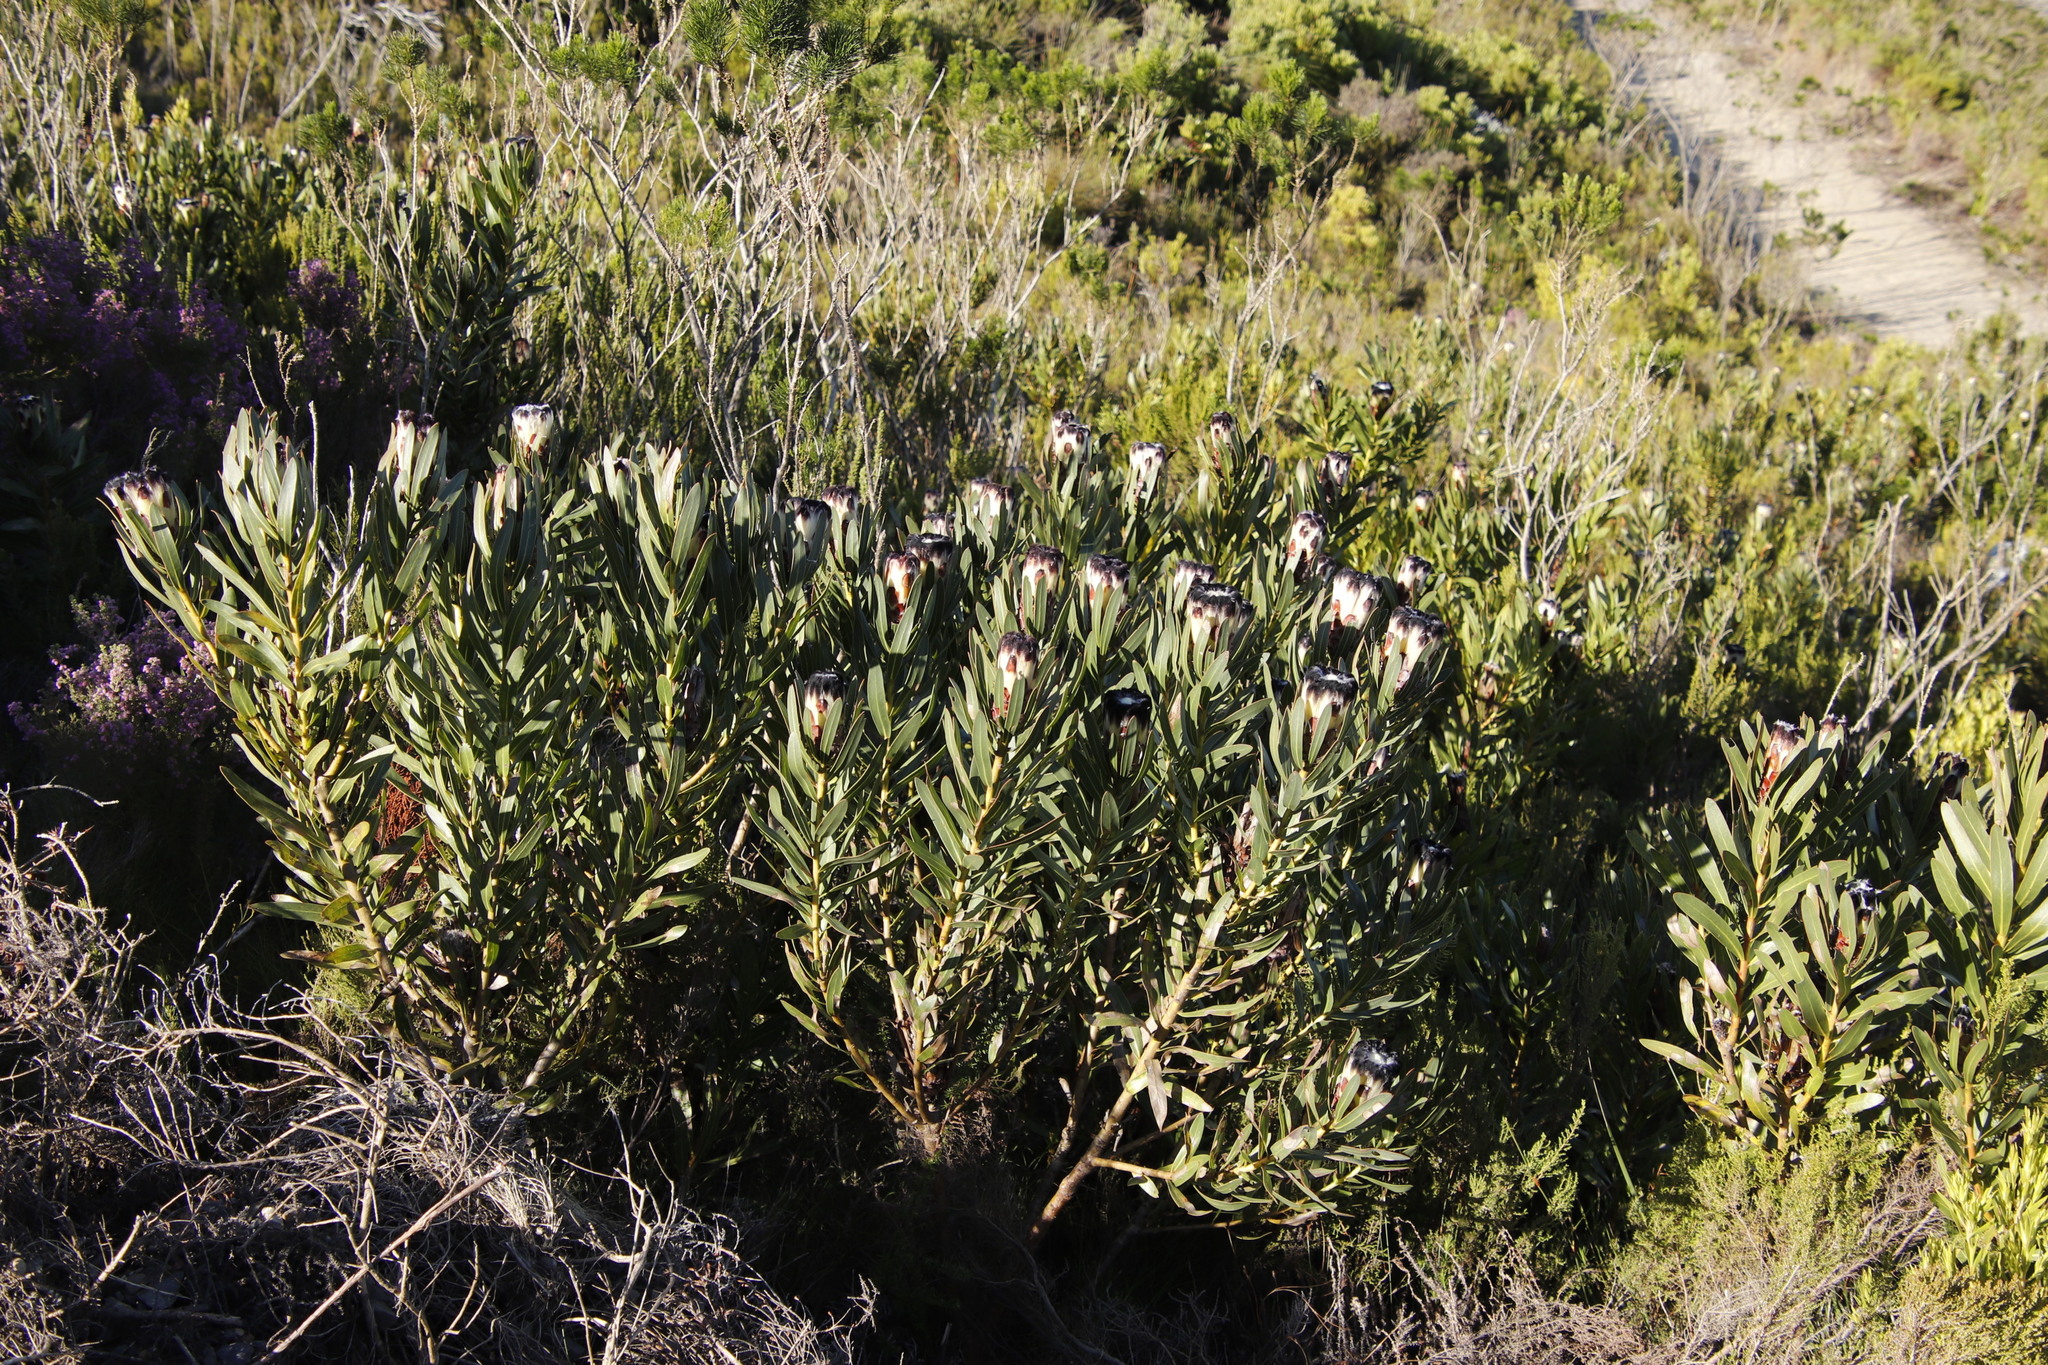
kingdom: Plantae
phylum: Tracheophyta
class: Magnoliopsida
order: Proteales
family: Proteaceae
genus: Protea
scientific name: Protea lepidocarpodendron
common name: Black-bearded protea
